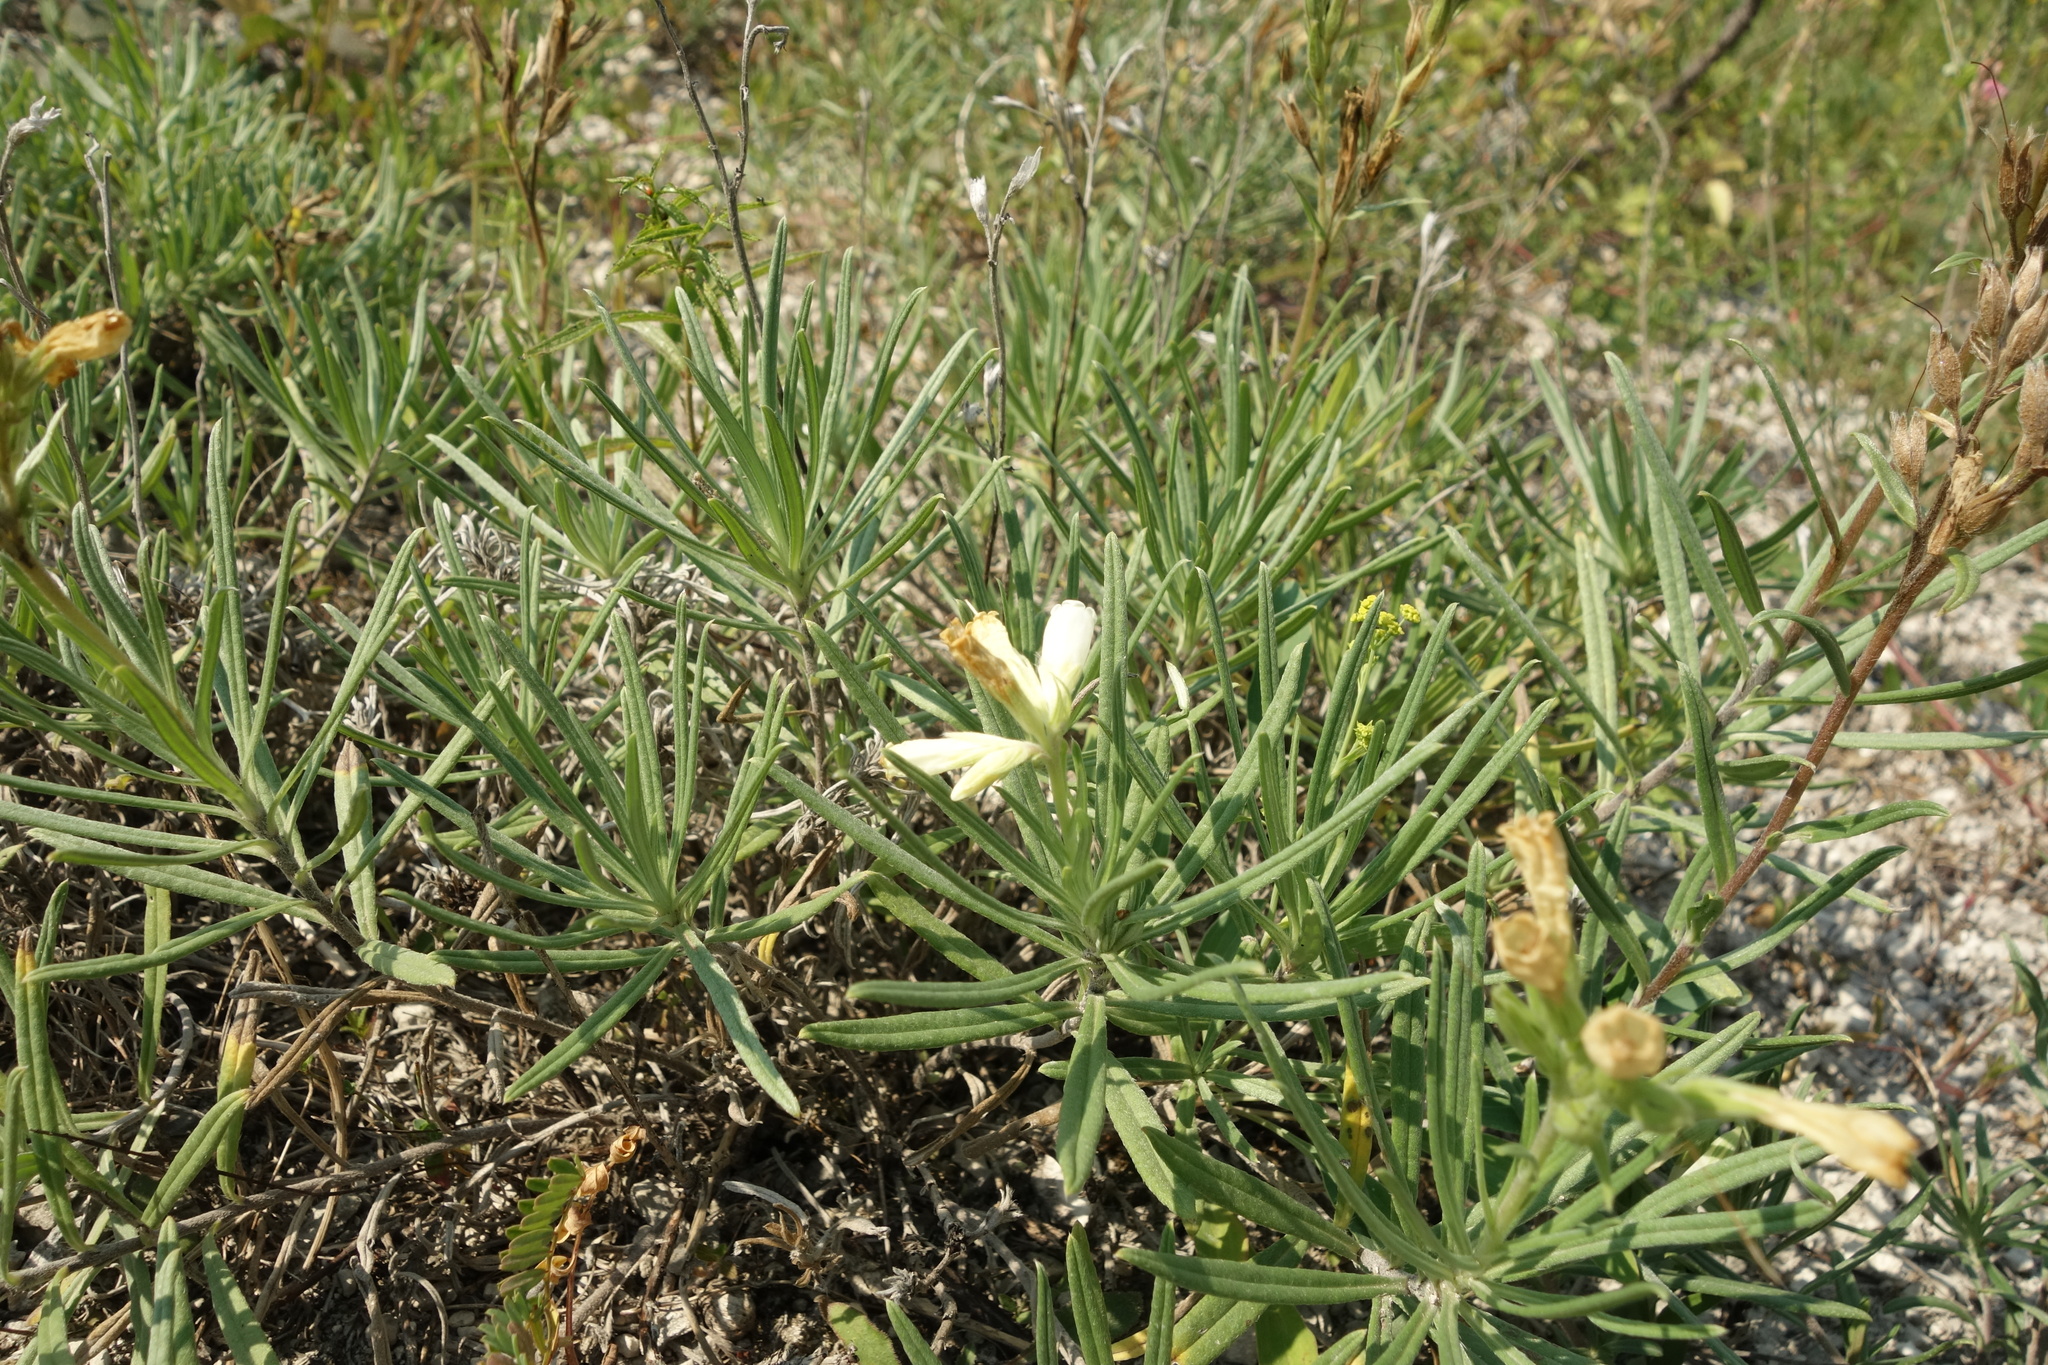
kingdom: Plantae
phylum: Tracheophyta
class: Magnoliopsida
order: Boraginales
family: Boraginaceae
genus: Onosma
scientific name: Onosma simplicissima
